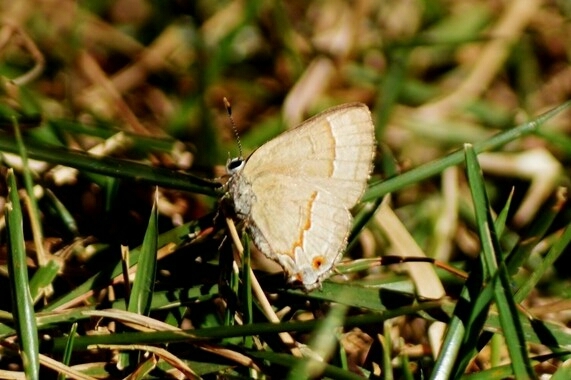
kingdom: Animalia
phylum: Arthropoda
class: Insecta
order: Lepidoptera
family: Lycaenidae
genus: Electrostrymon
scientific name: Electrostrymon endymion
